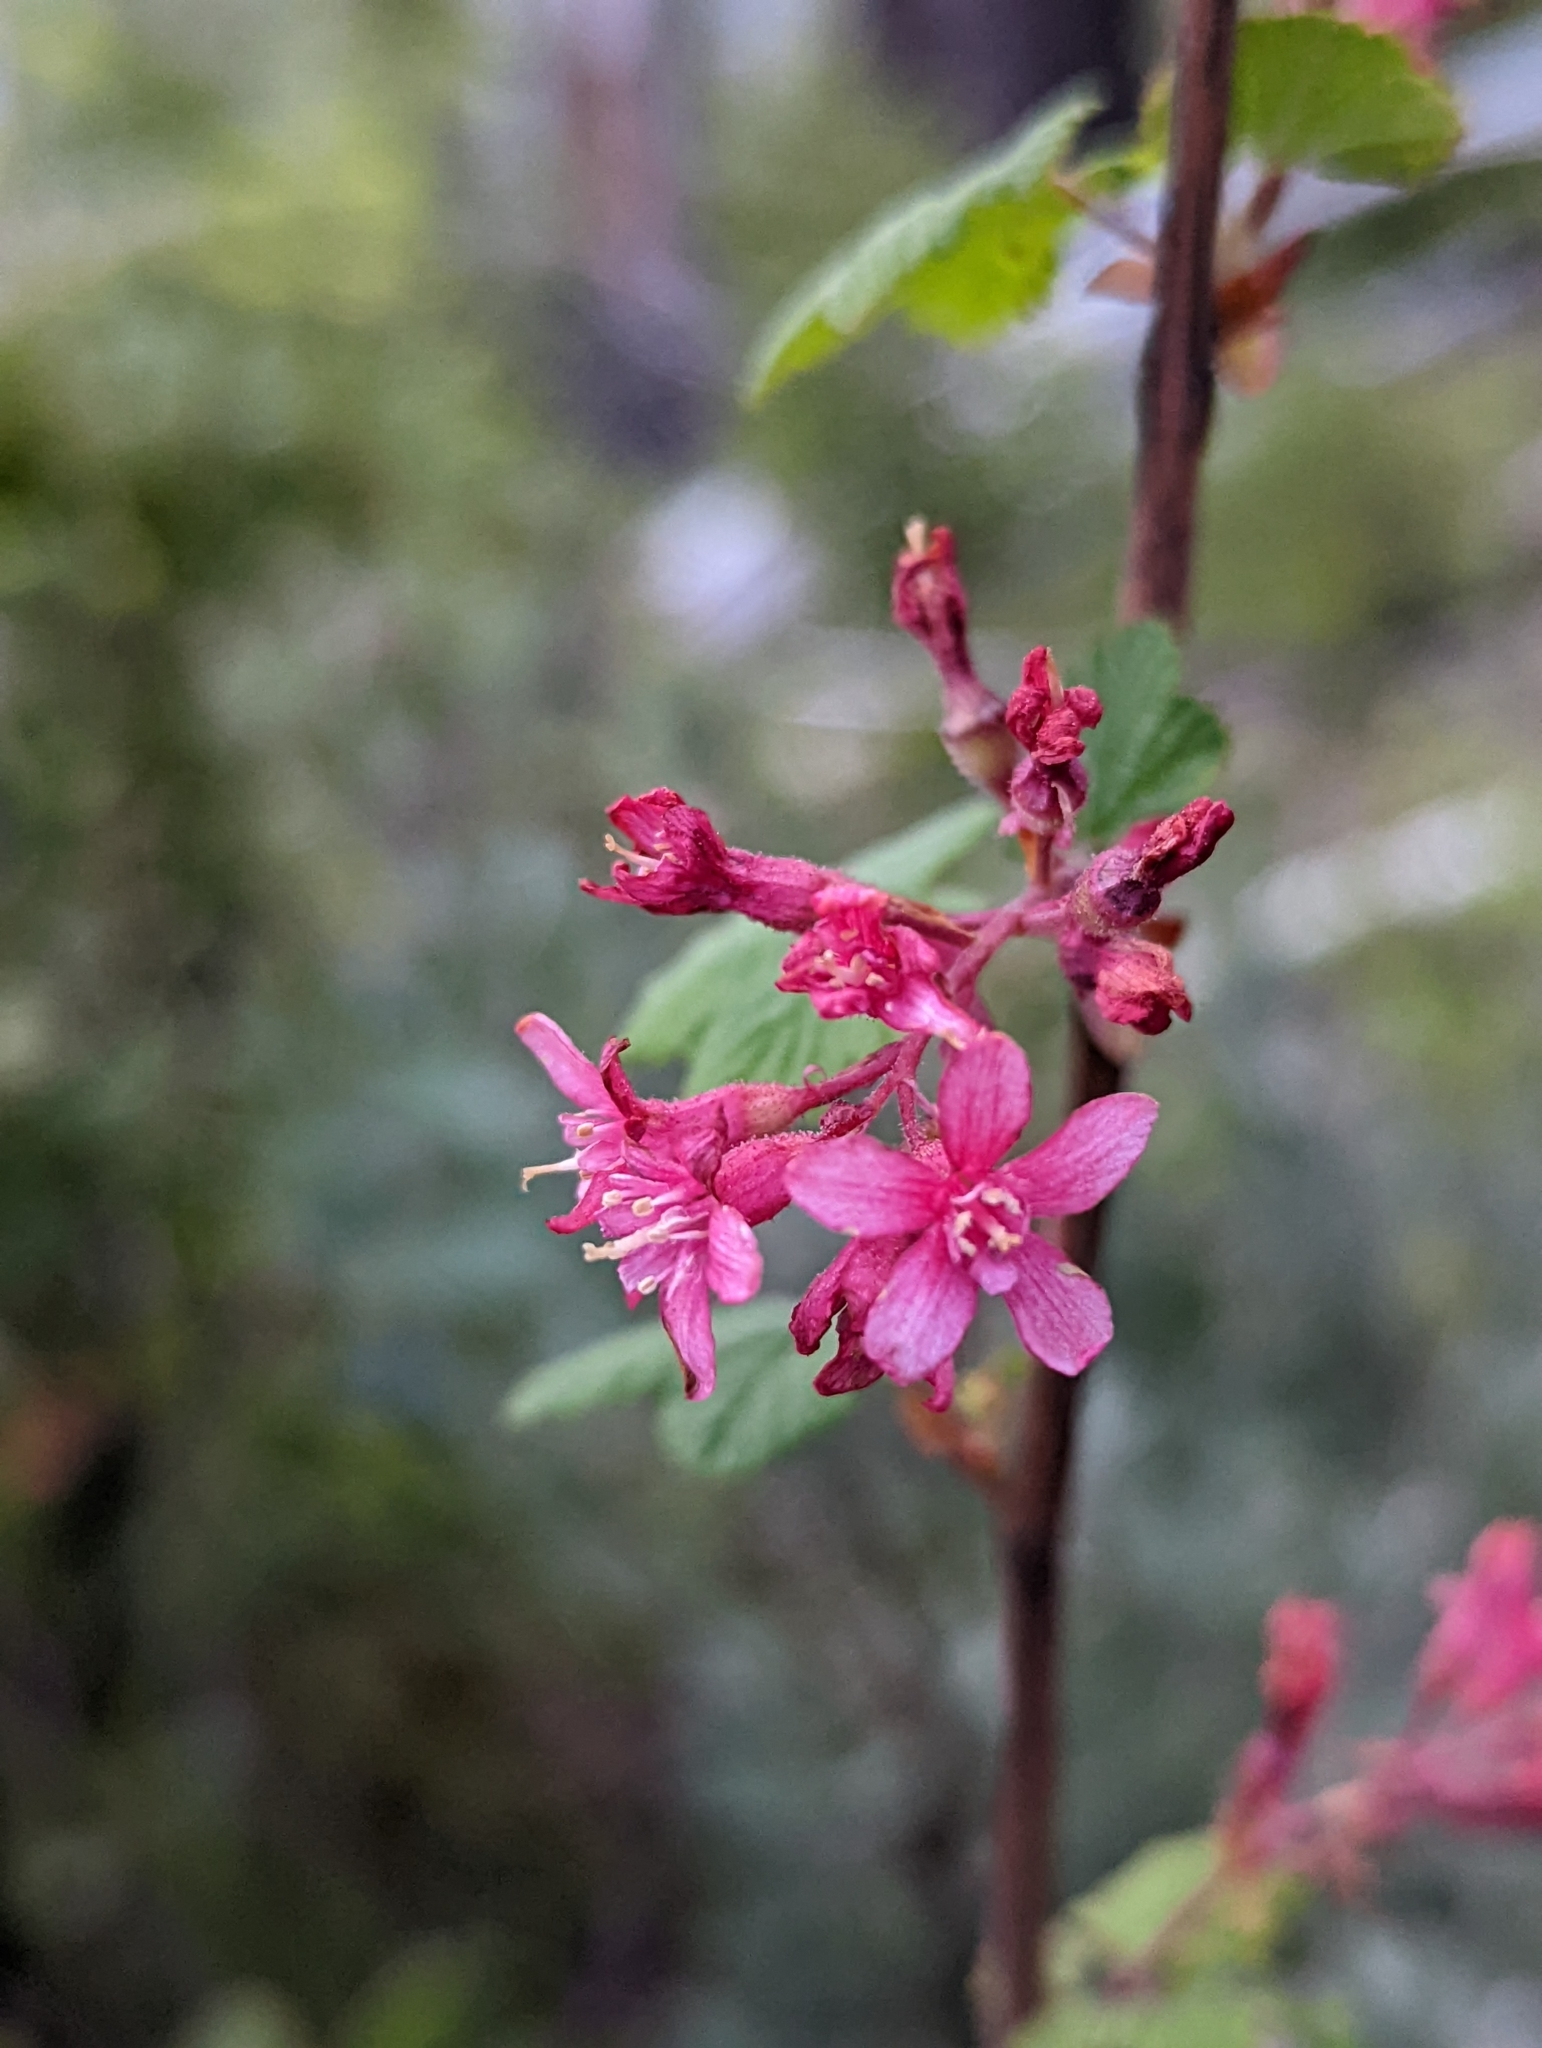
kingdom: Plantae
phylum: Tracheophyta
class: Magnoliopsida
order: Saxifragales
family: Grossulariaceae
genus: Ribes
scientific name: Ribes sanguineum
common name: Flowering currant
